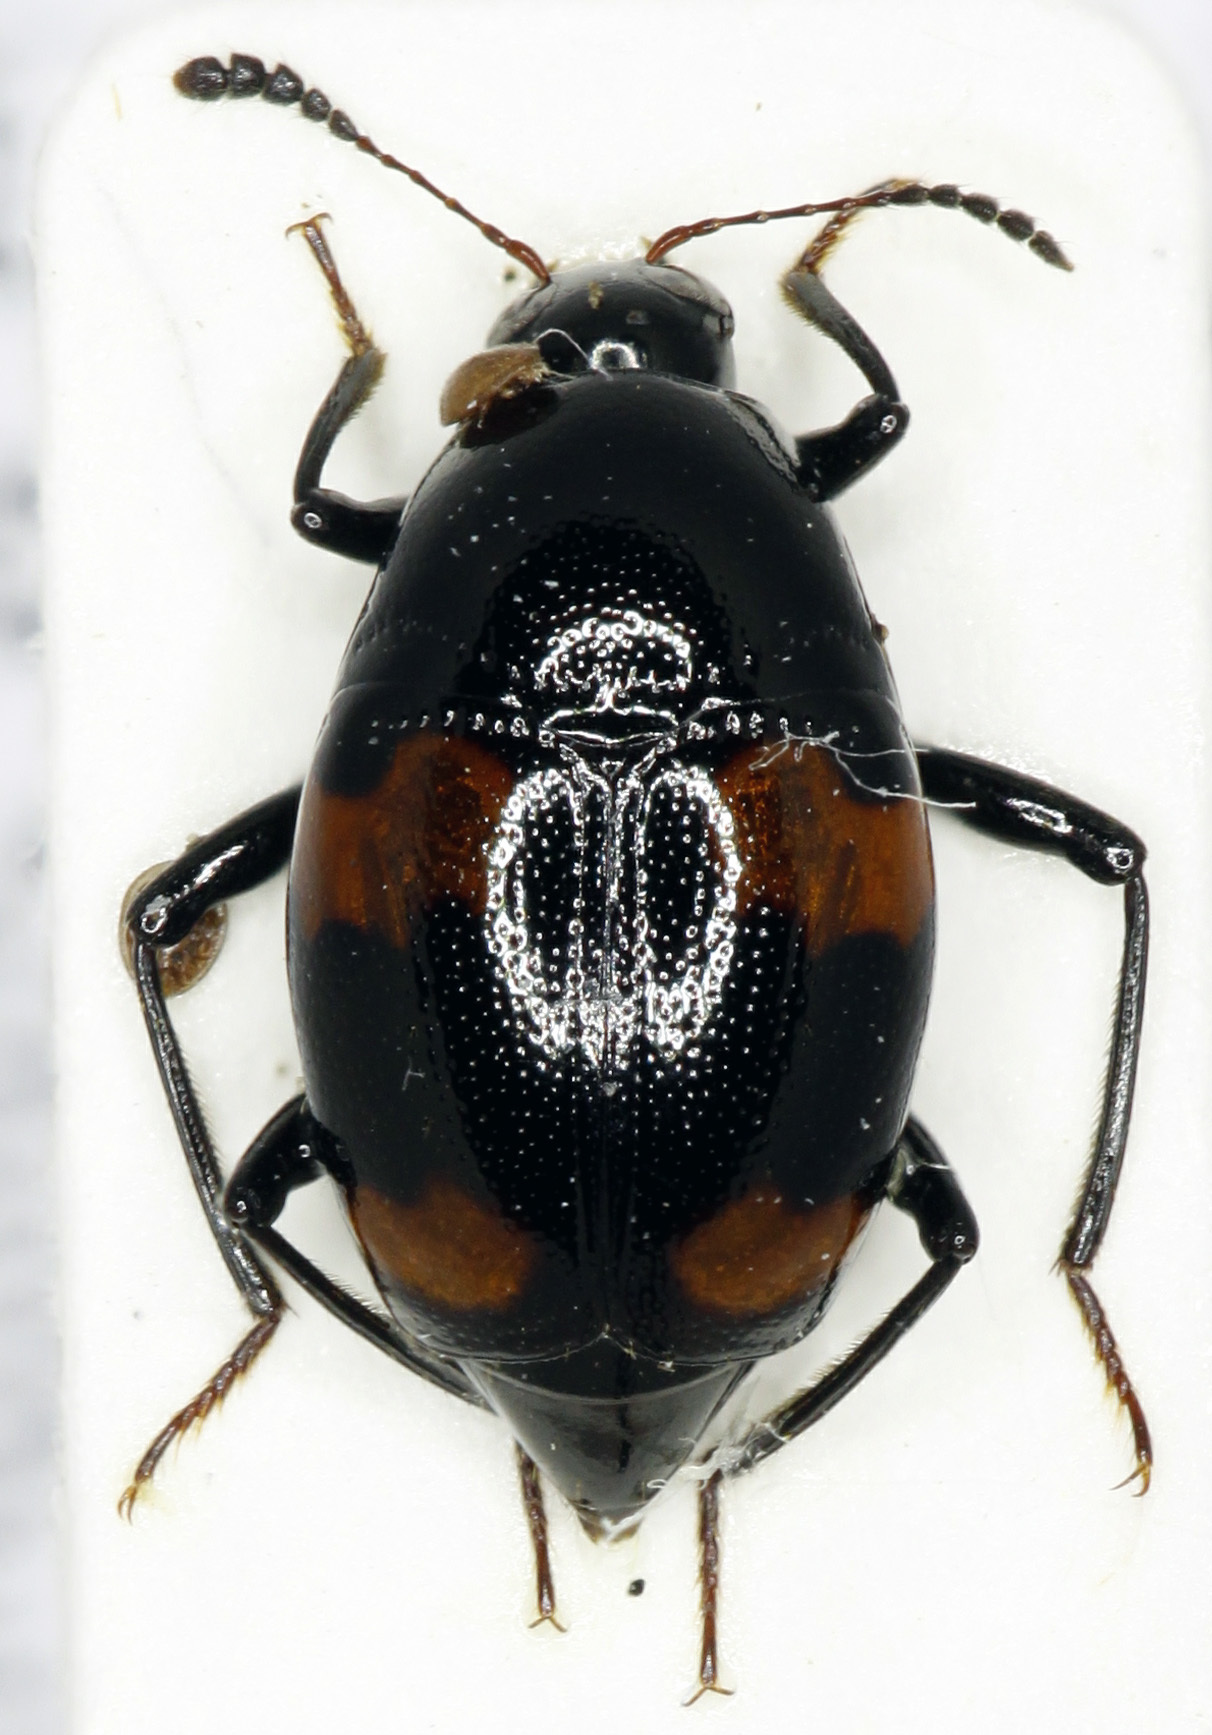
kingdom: Animalia
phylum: Arthropoda
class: Insecta
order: Coleoptera
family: Staphylinidae
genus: Scaphidium
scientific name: Scaphidium quadrimaculatum
